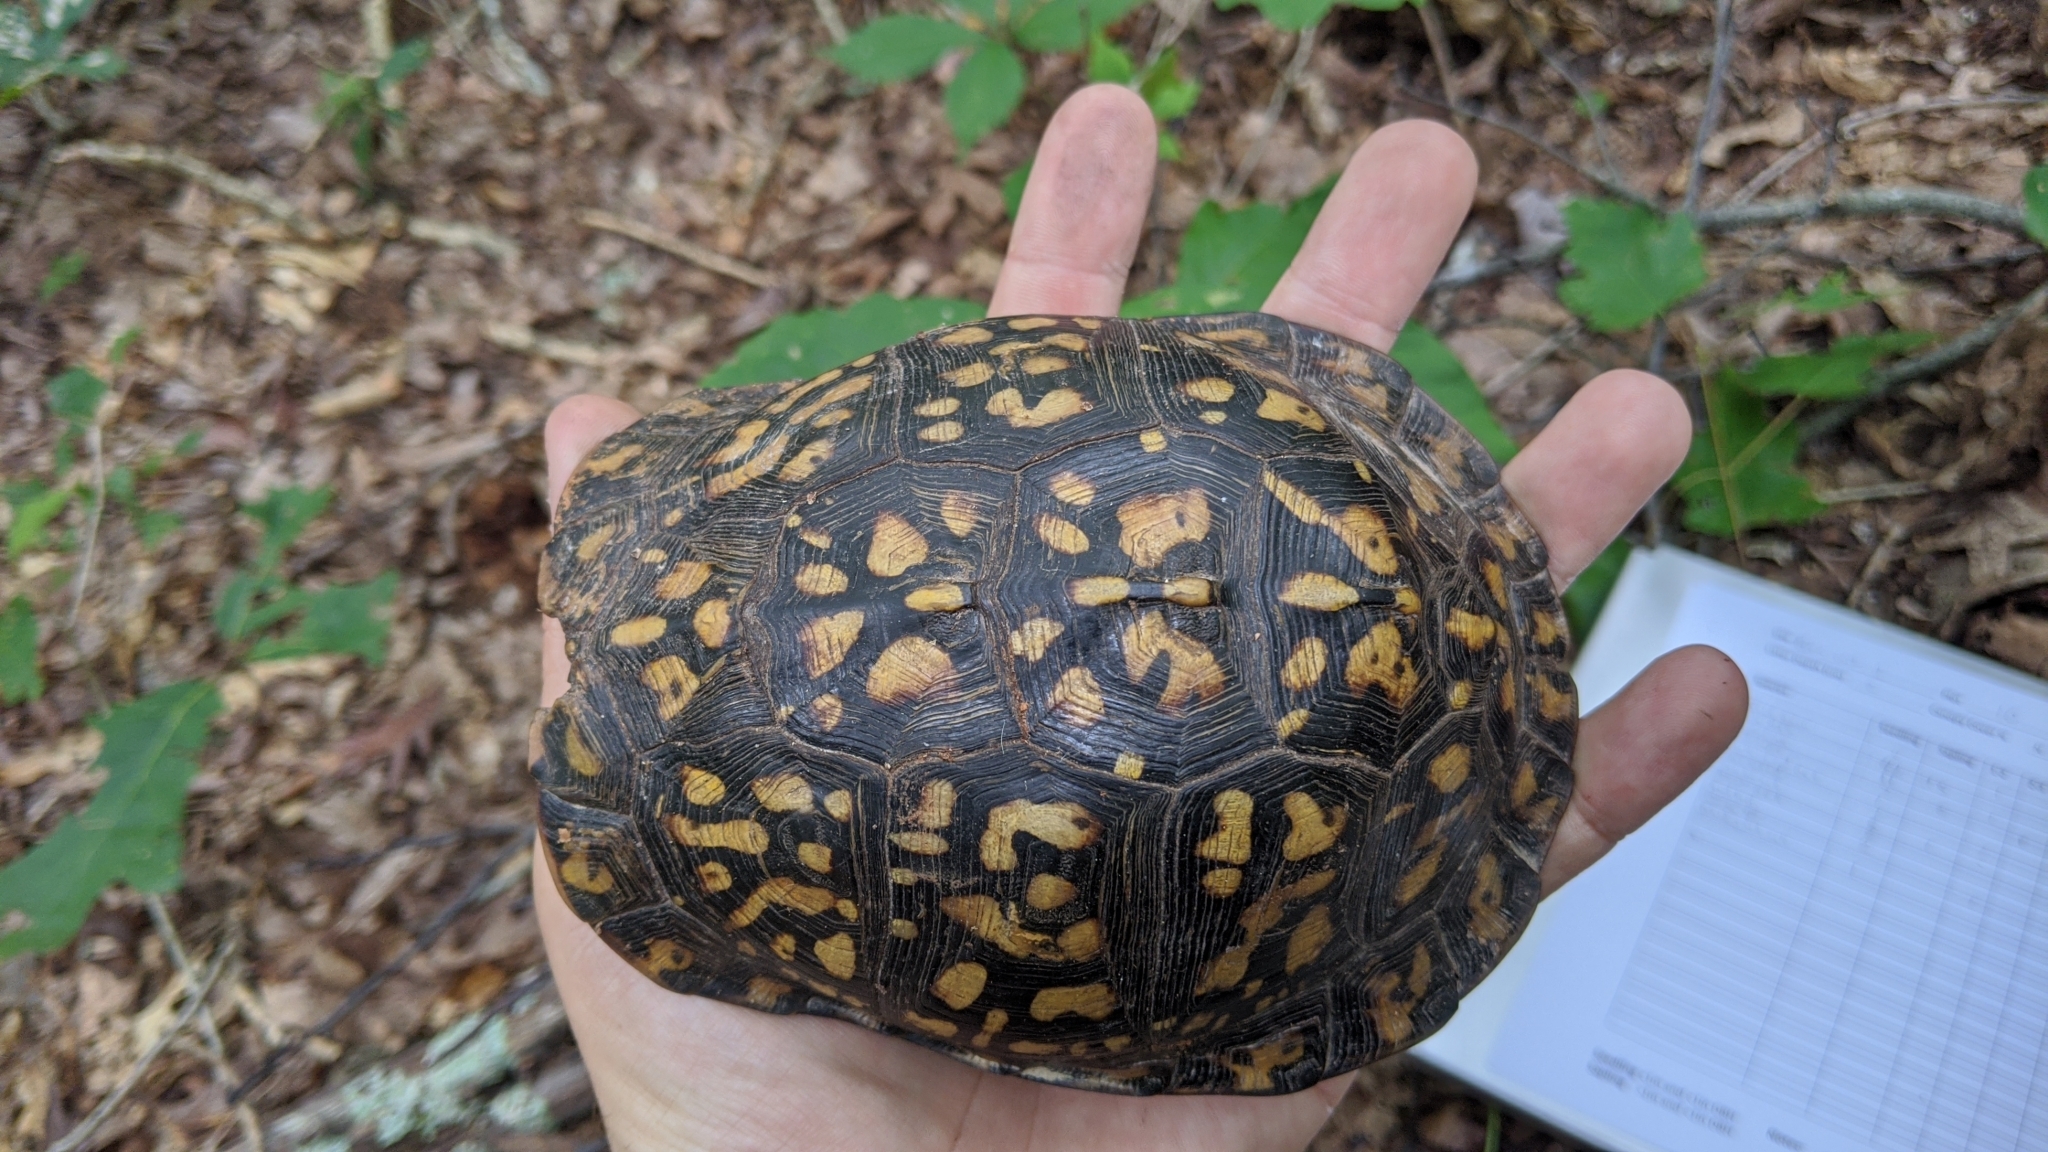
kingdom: Animalia
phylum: Chordata
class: Testudines
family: Emydidae
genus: Terrapene
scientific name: Terrapene carolina
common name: Common box turtle
